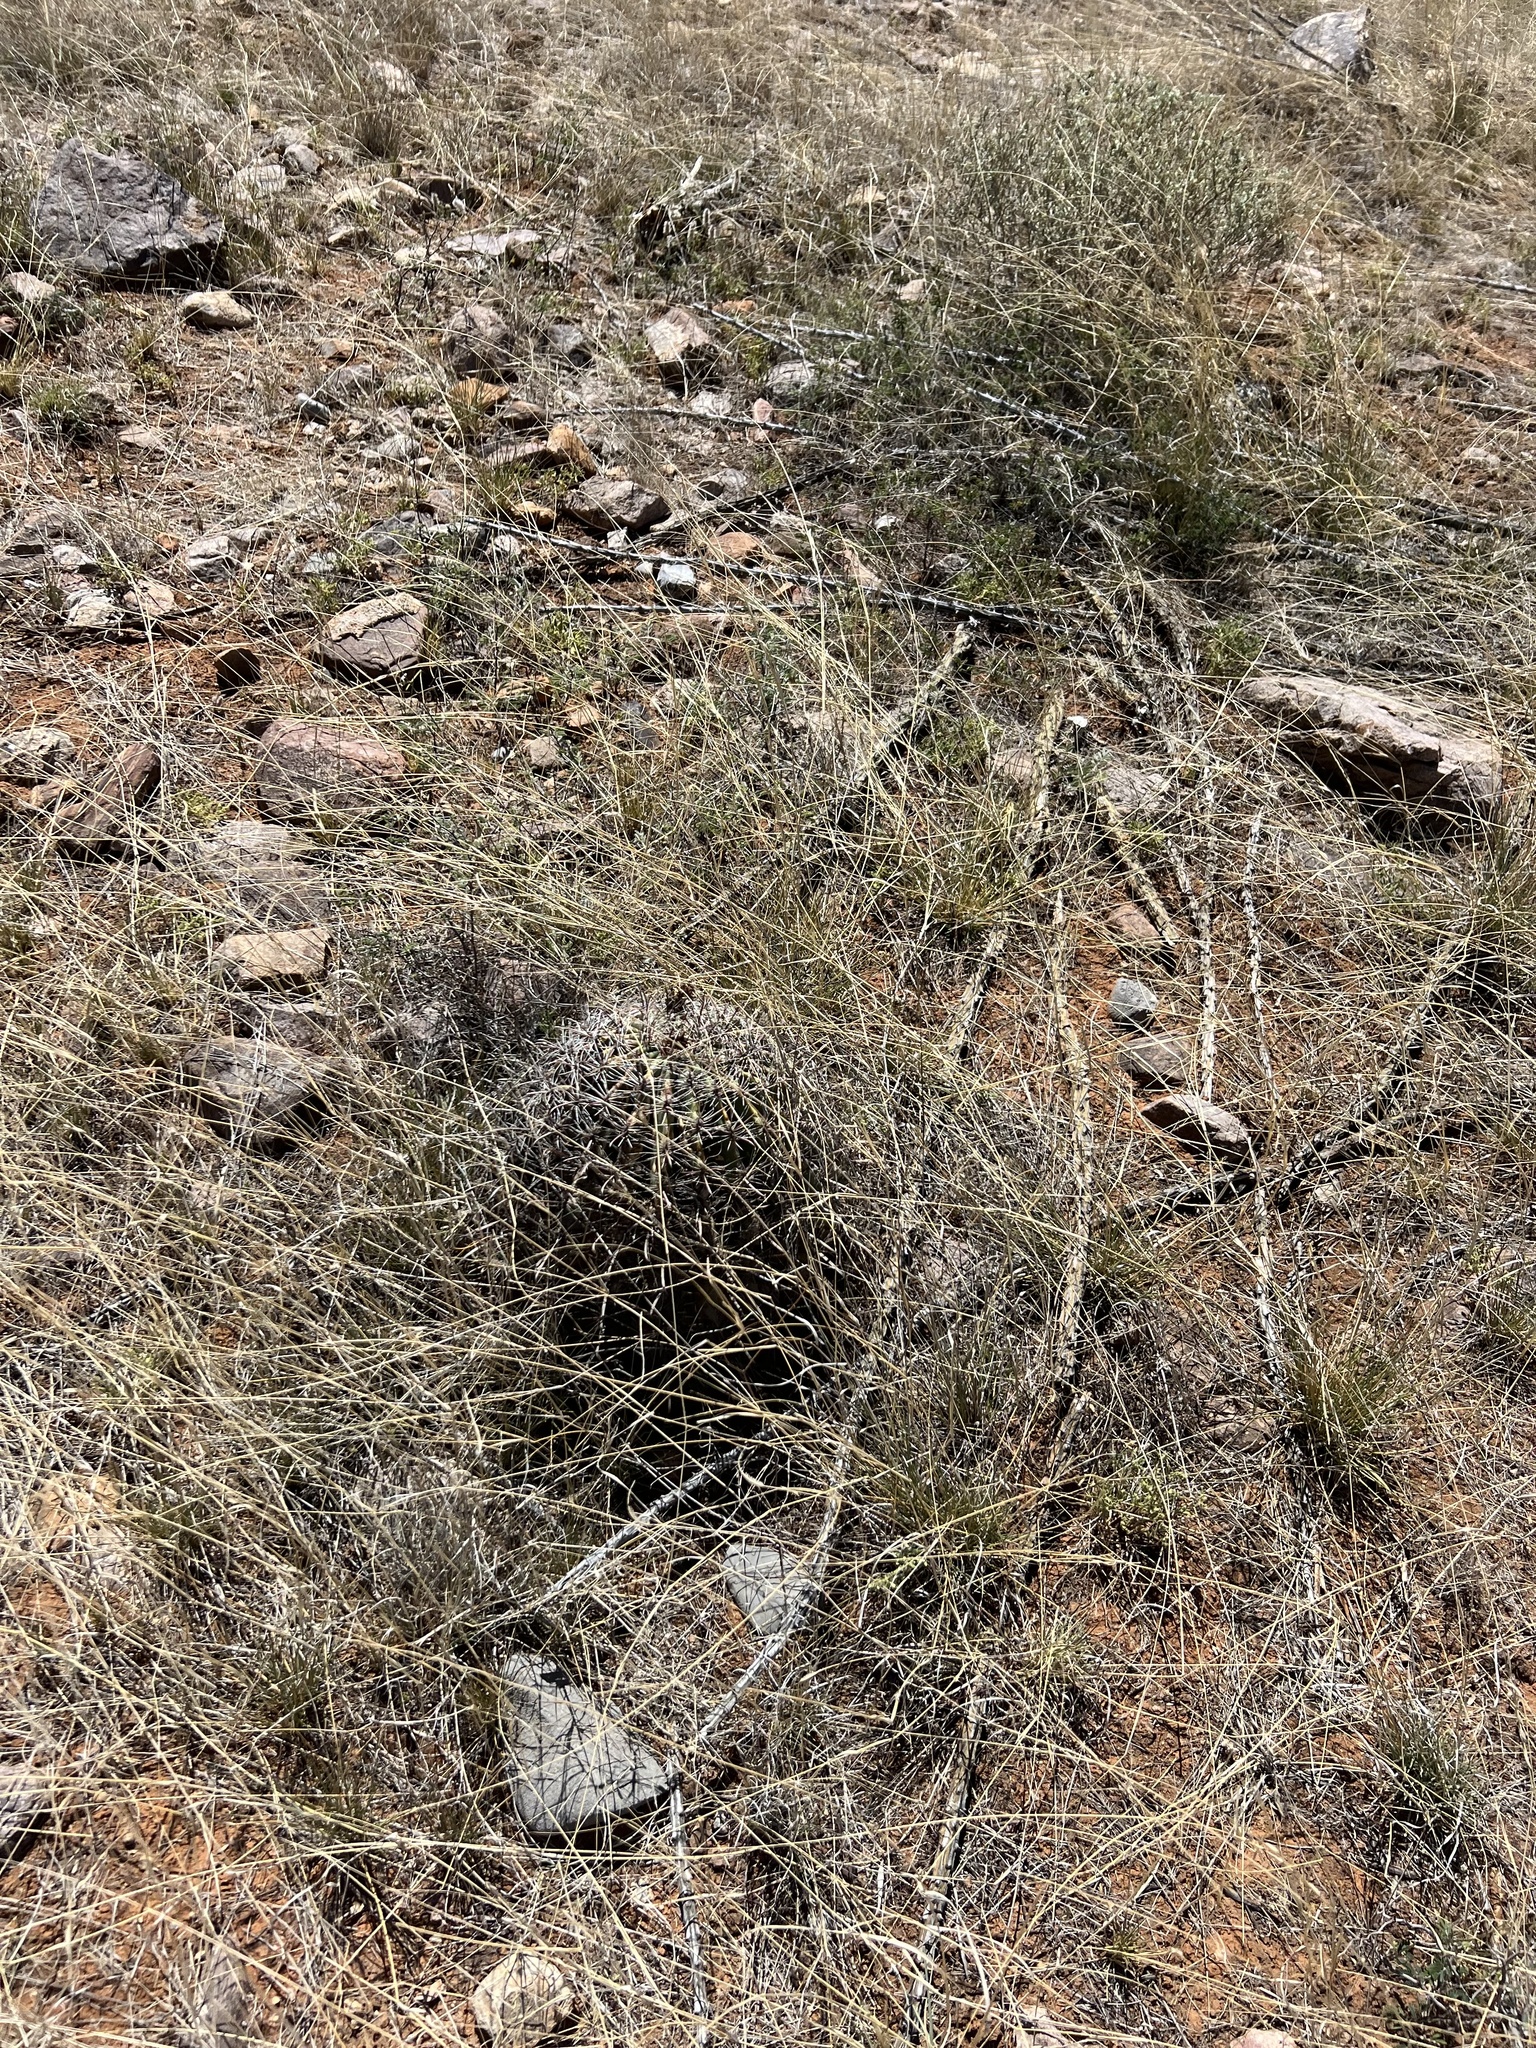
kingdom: Plantae
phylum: Tracheophyta
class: Magnoliopsida
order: Caryophyllales
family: Cactaceae
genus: Ferocactus
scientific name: Ferocactus wislizeni
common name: Candy barrel cactus
